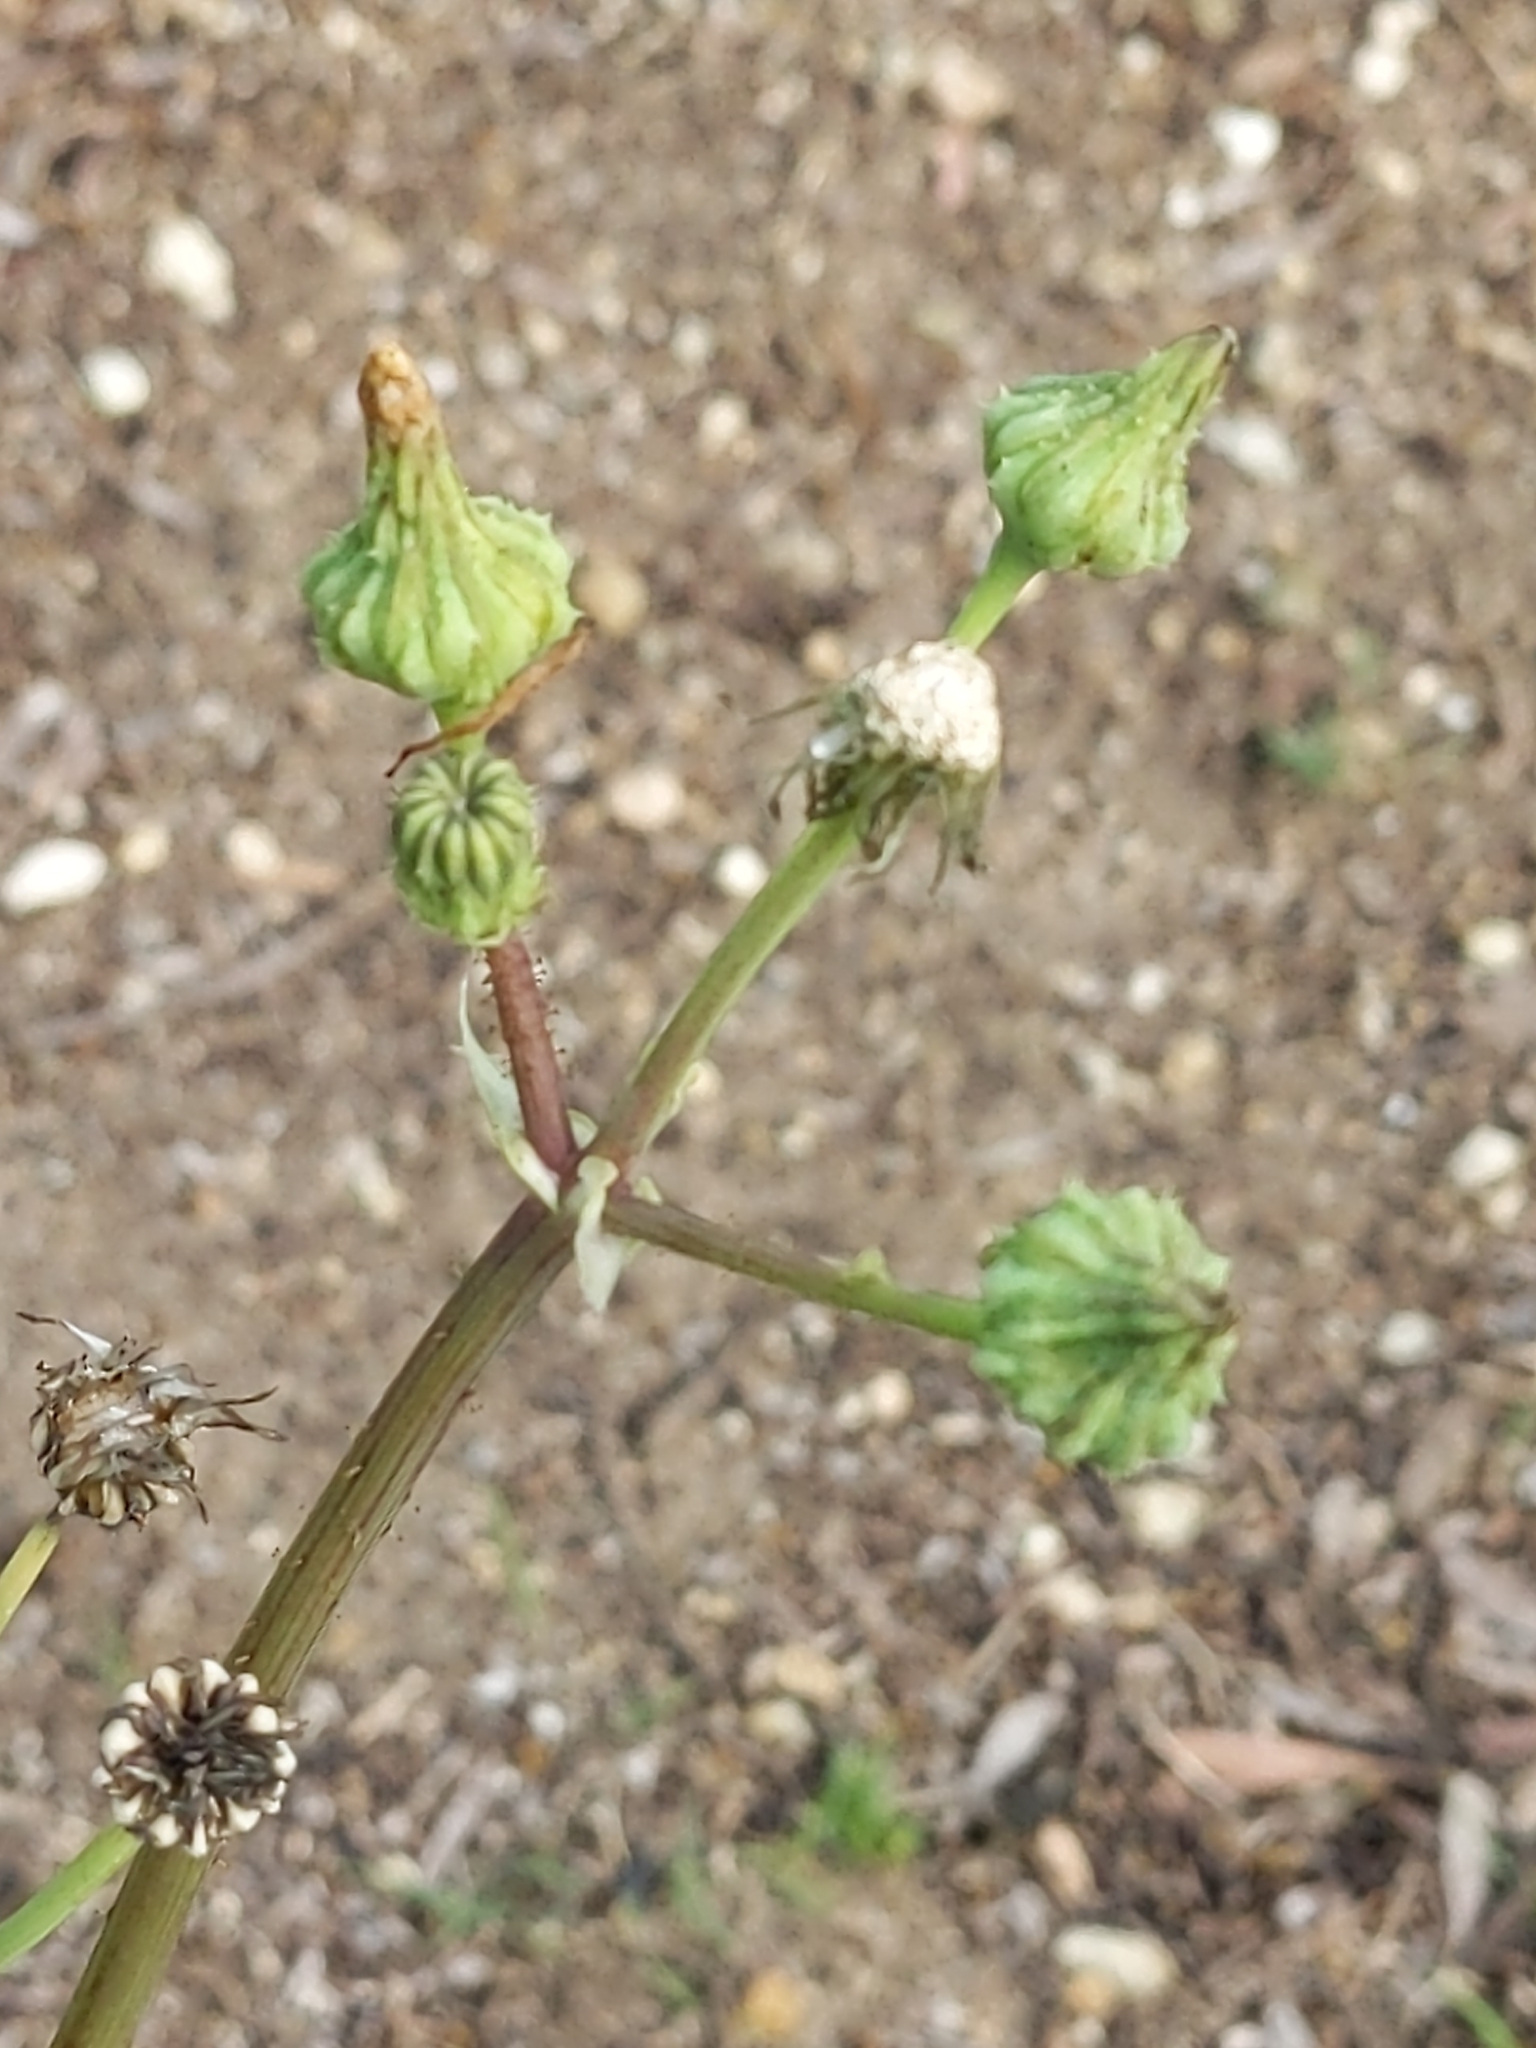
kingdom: Plantae
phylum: Tracheophyta
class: Magnoliopsida
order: Asterales
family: Asteraceae
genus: Sonchus
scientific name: Sonchus asper
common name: Prickly sow-thistle
